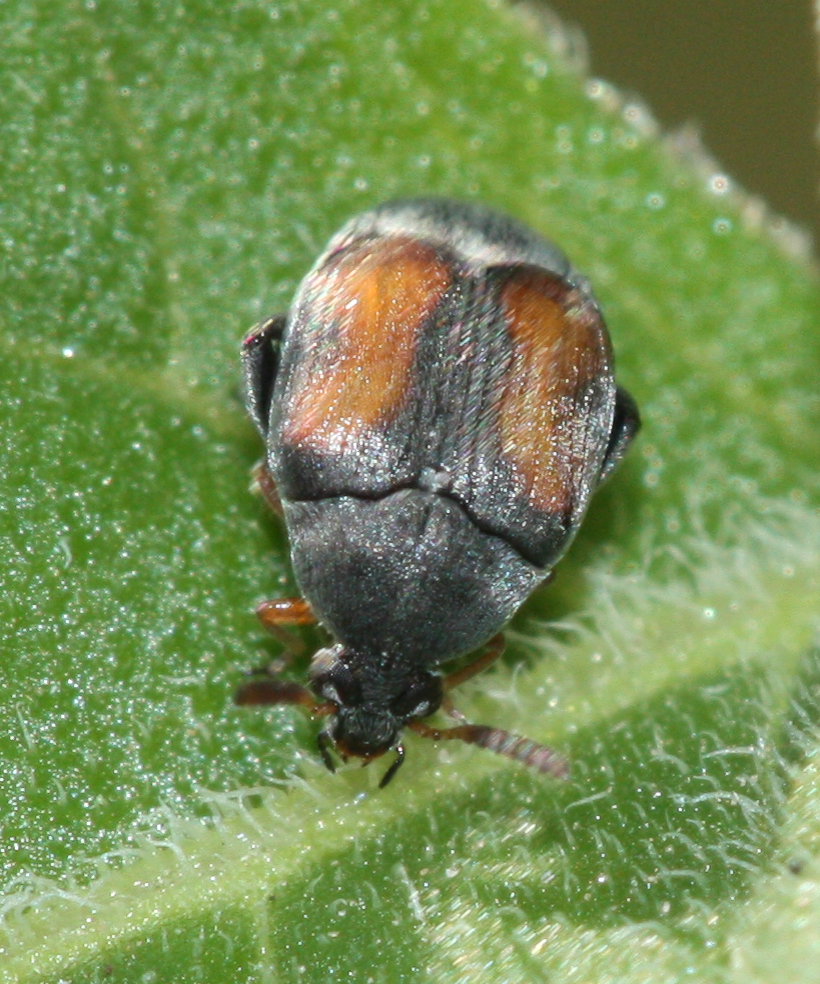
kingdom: Animalia
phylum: Arthropoda
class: Insecta
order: Coleoptera
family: Chrysomelidae
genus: Stator
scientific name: Stator limbatus
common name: Leaf beetle
